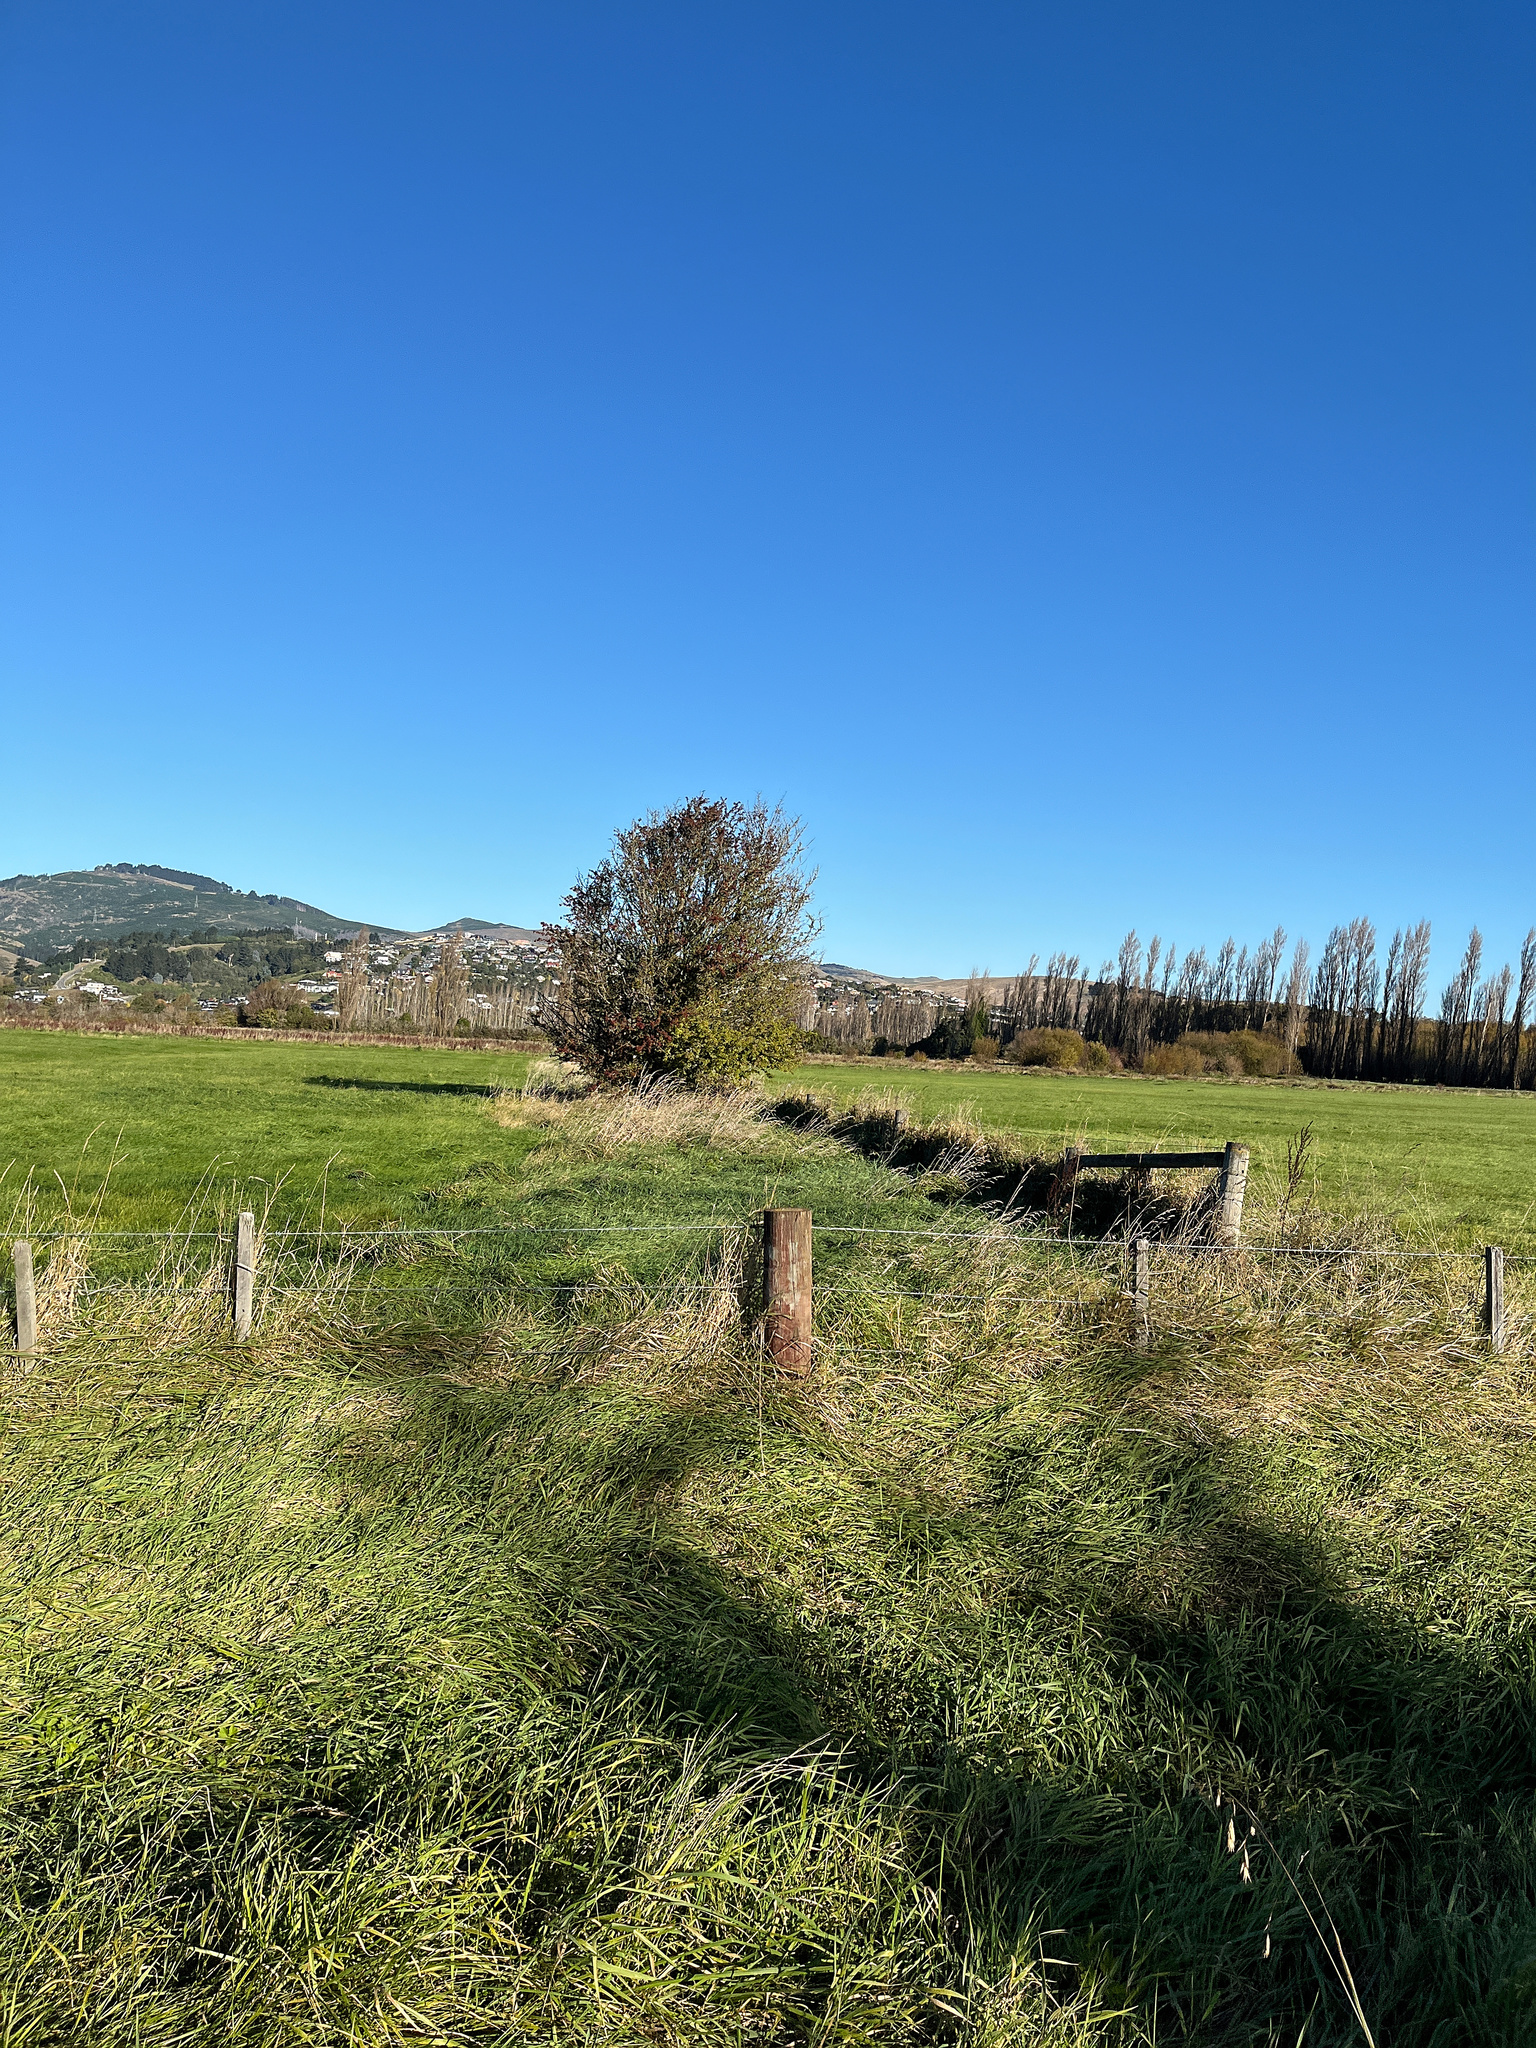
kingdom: Plantae
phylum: Tracheophyta
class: Magnoliopsida
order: Rosales
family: Rosaceae
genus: Crataegus
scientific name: Crataegus monogyna
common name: Hawthorn
